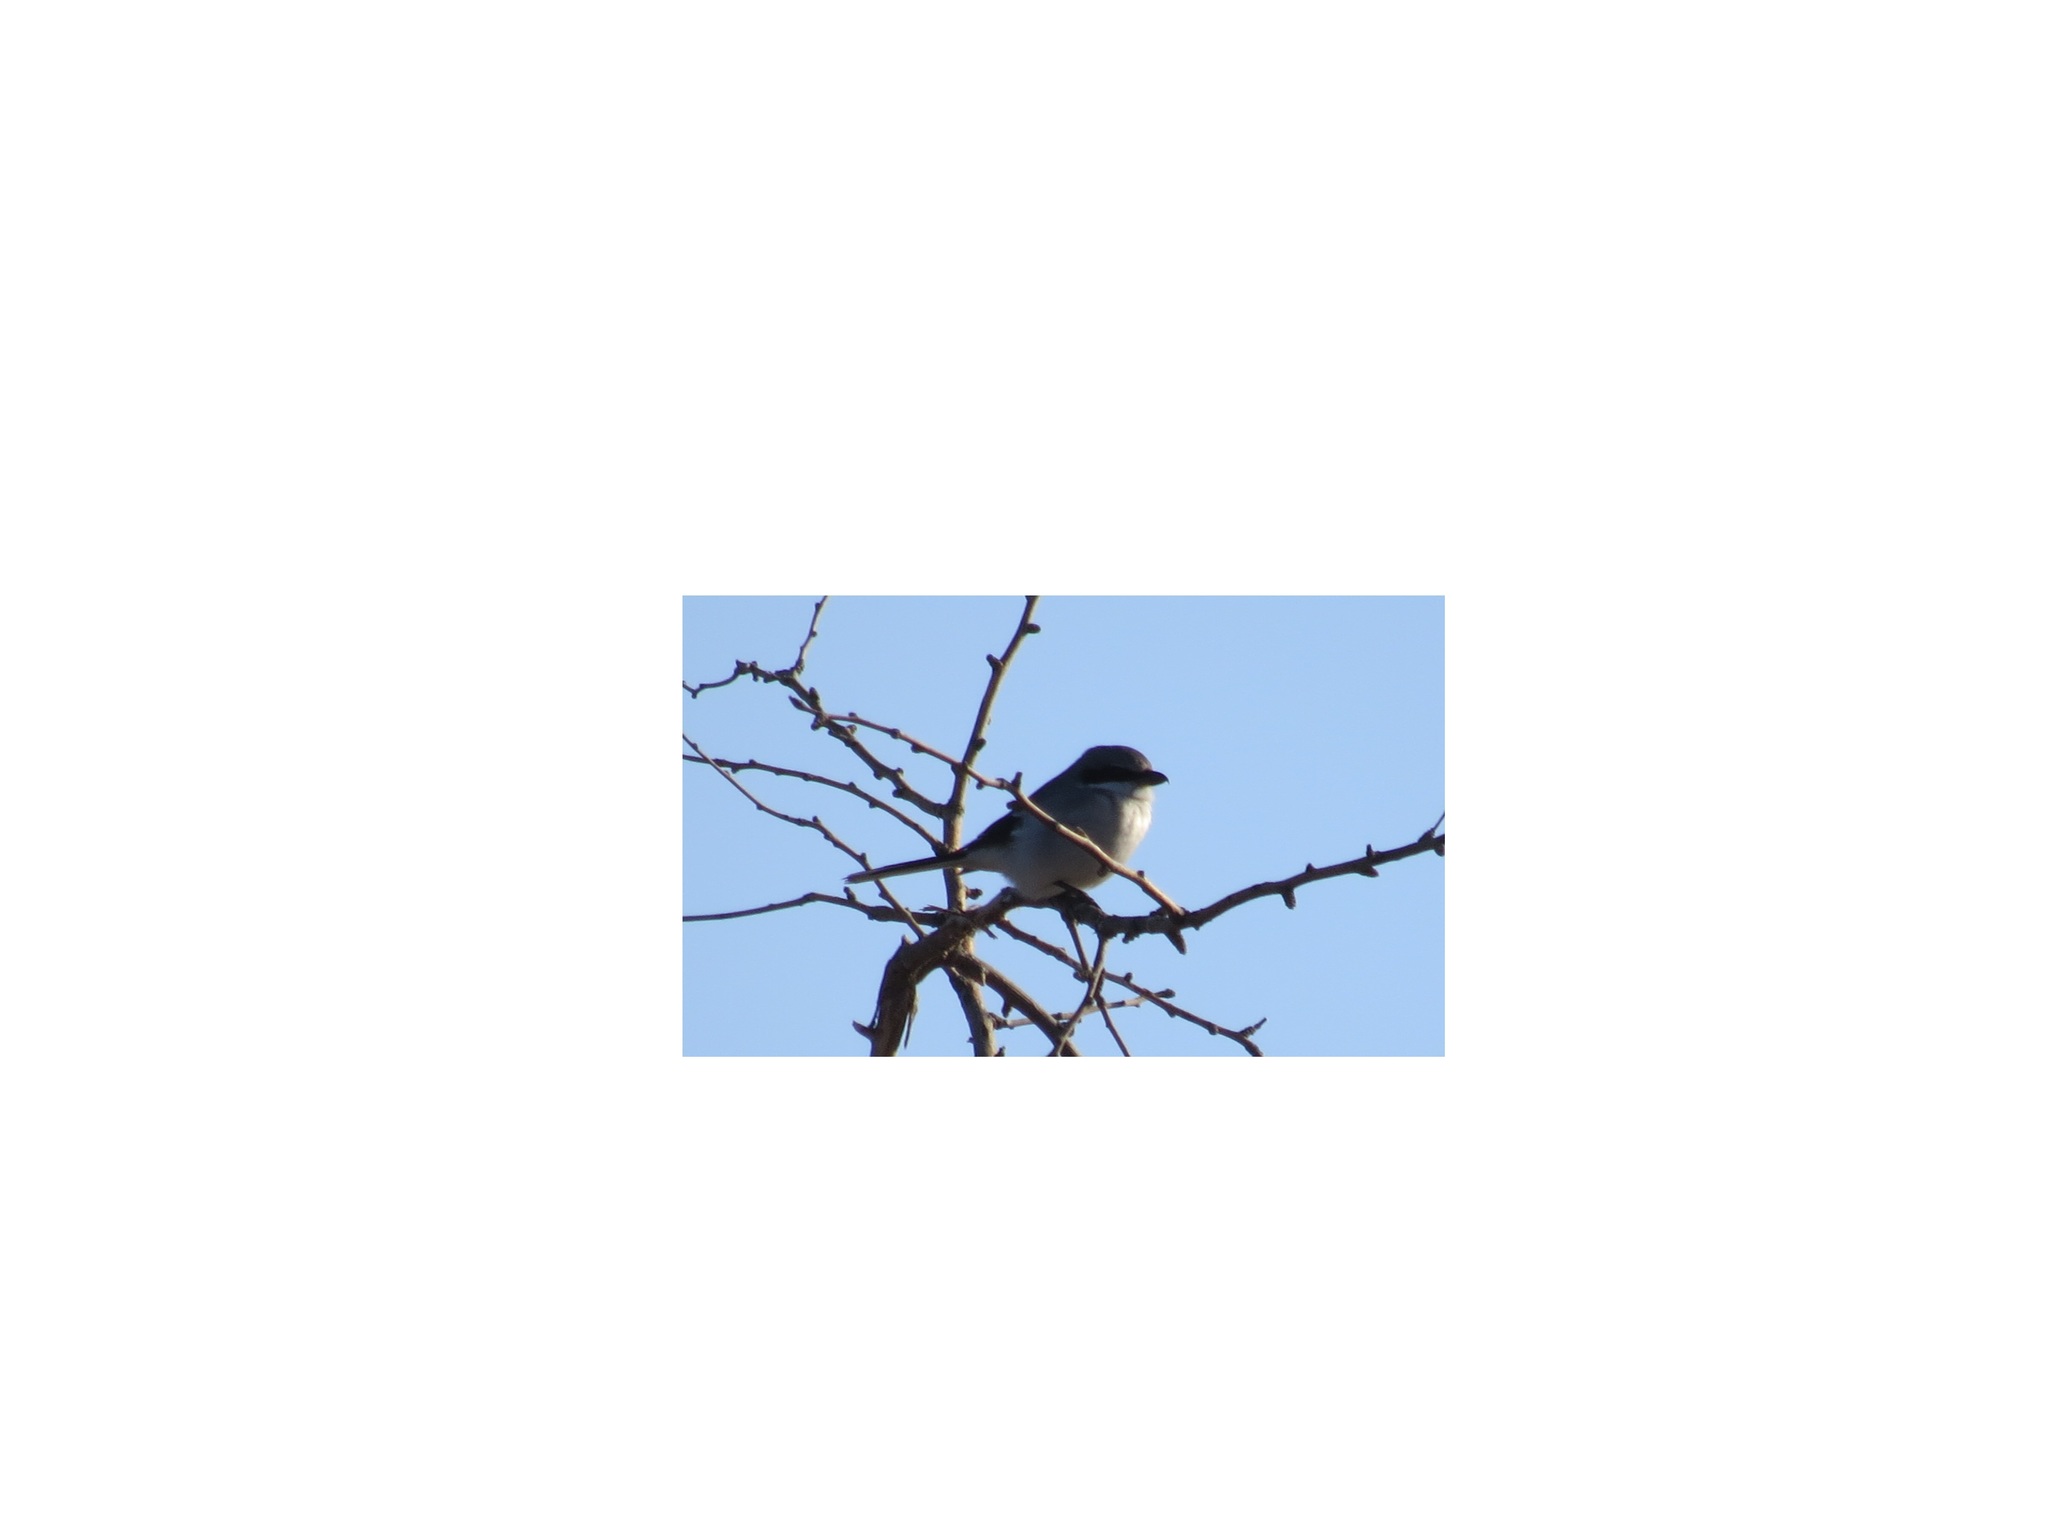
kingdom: Animalia
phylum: Chordata
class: Aves
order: Passeriformes
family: Laniidae
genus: Lanius
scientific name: Lanius ludovicianus
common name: Loggerhead shrike
